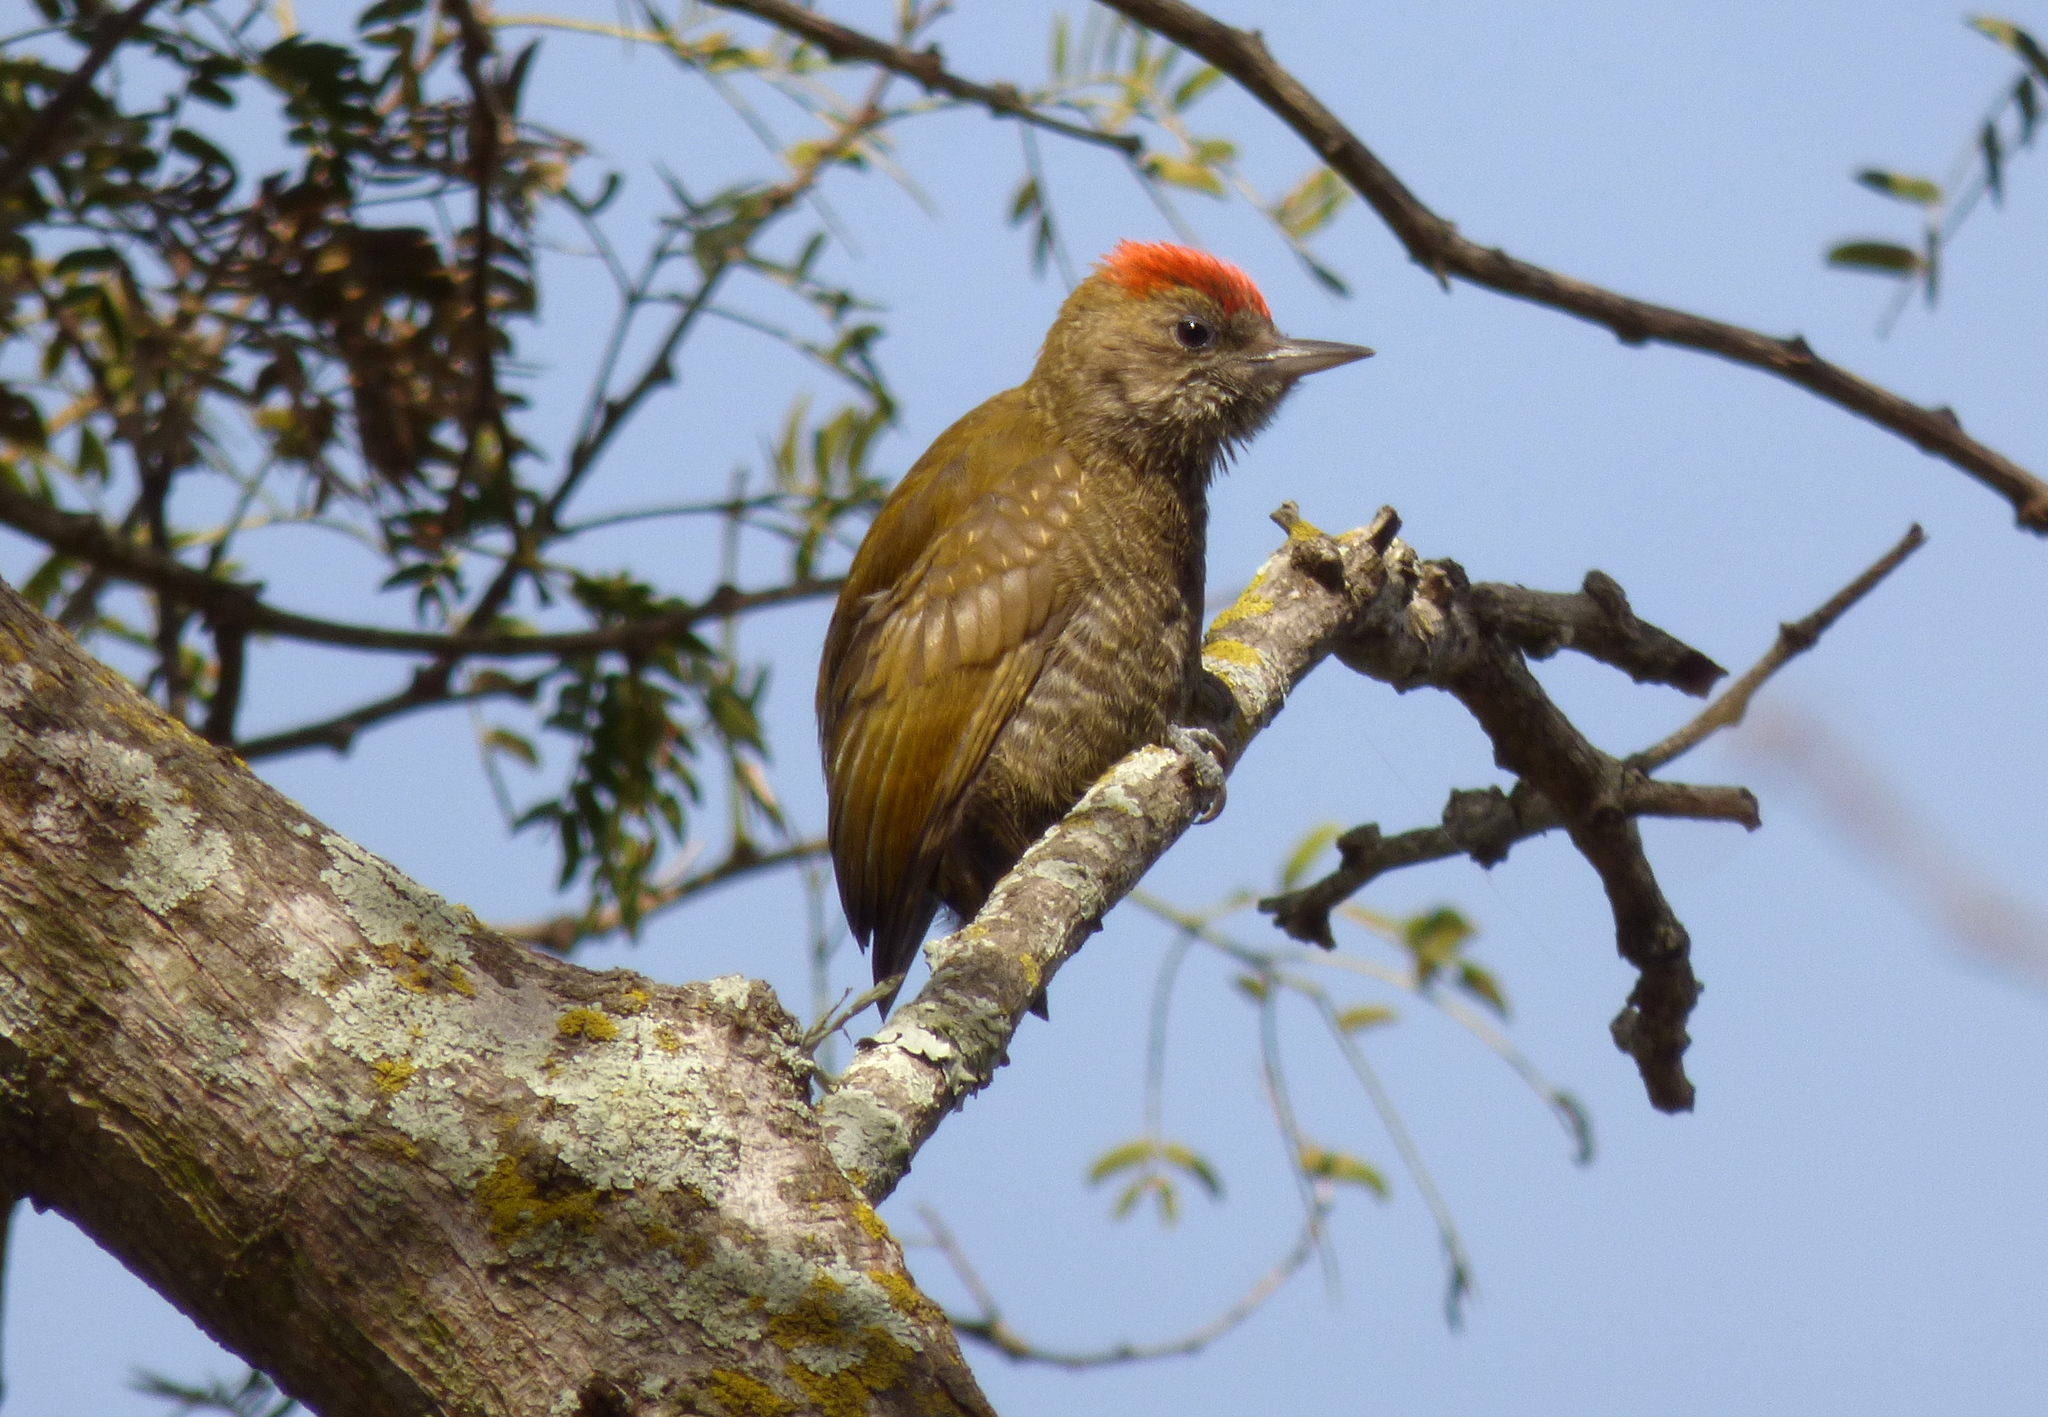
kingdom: Animalia
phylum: Chordata
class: Aves
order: Piciformes
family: Picidae
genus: Veniliornis
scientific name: Veniliornis passerinus
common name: Little woodpecker
